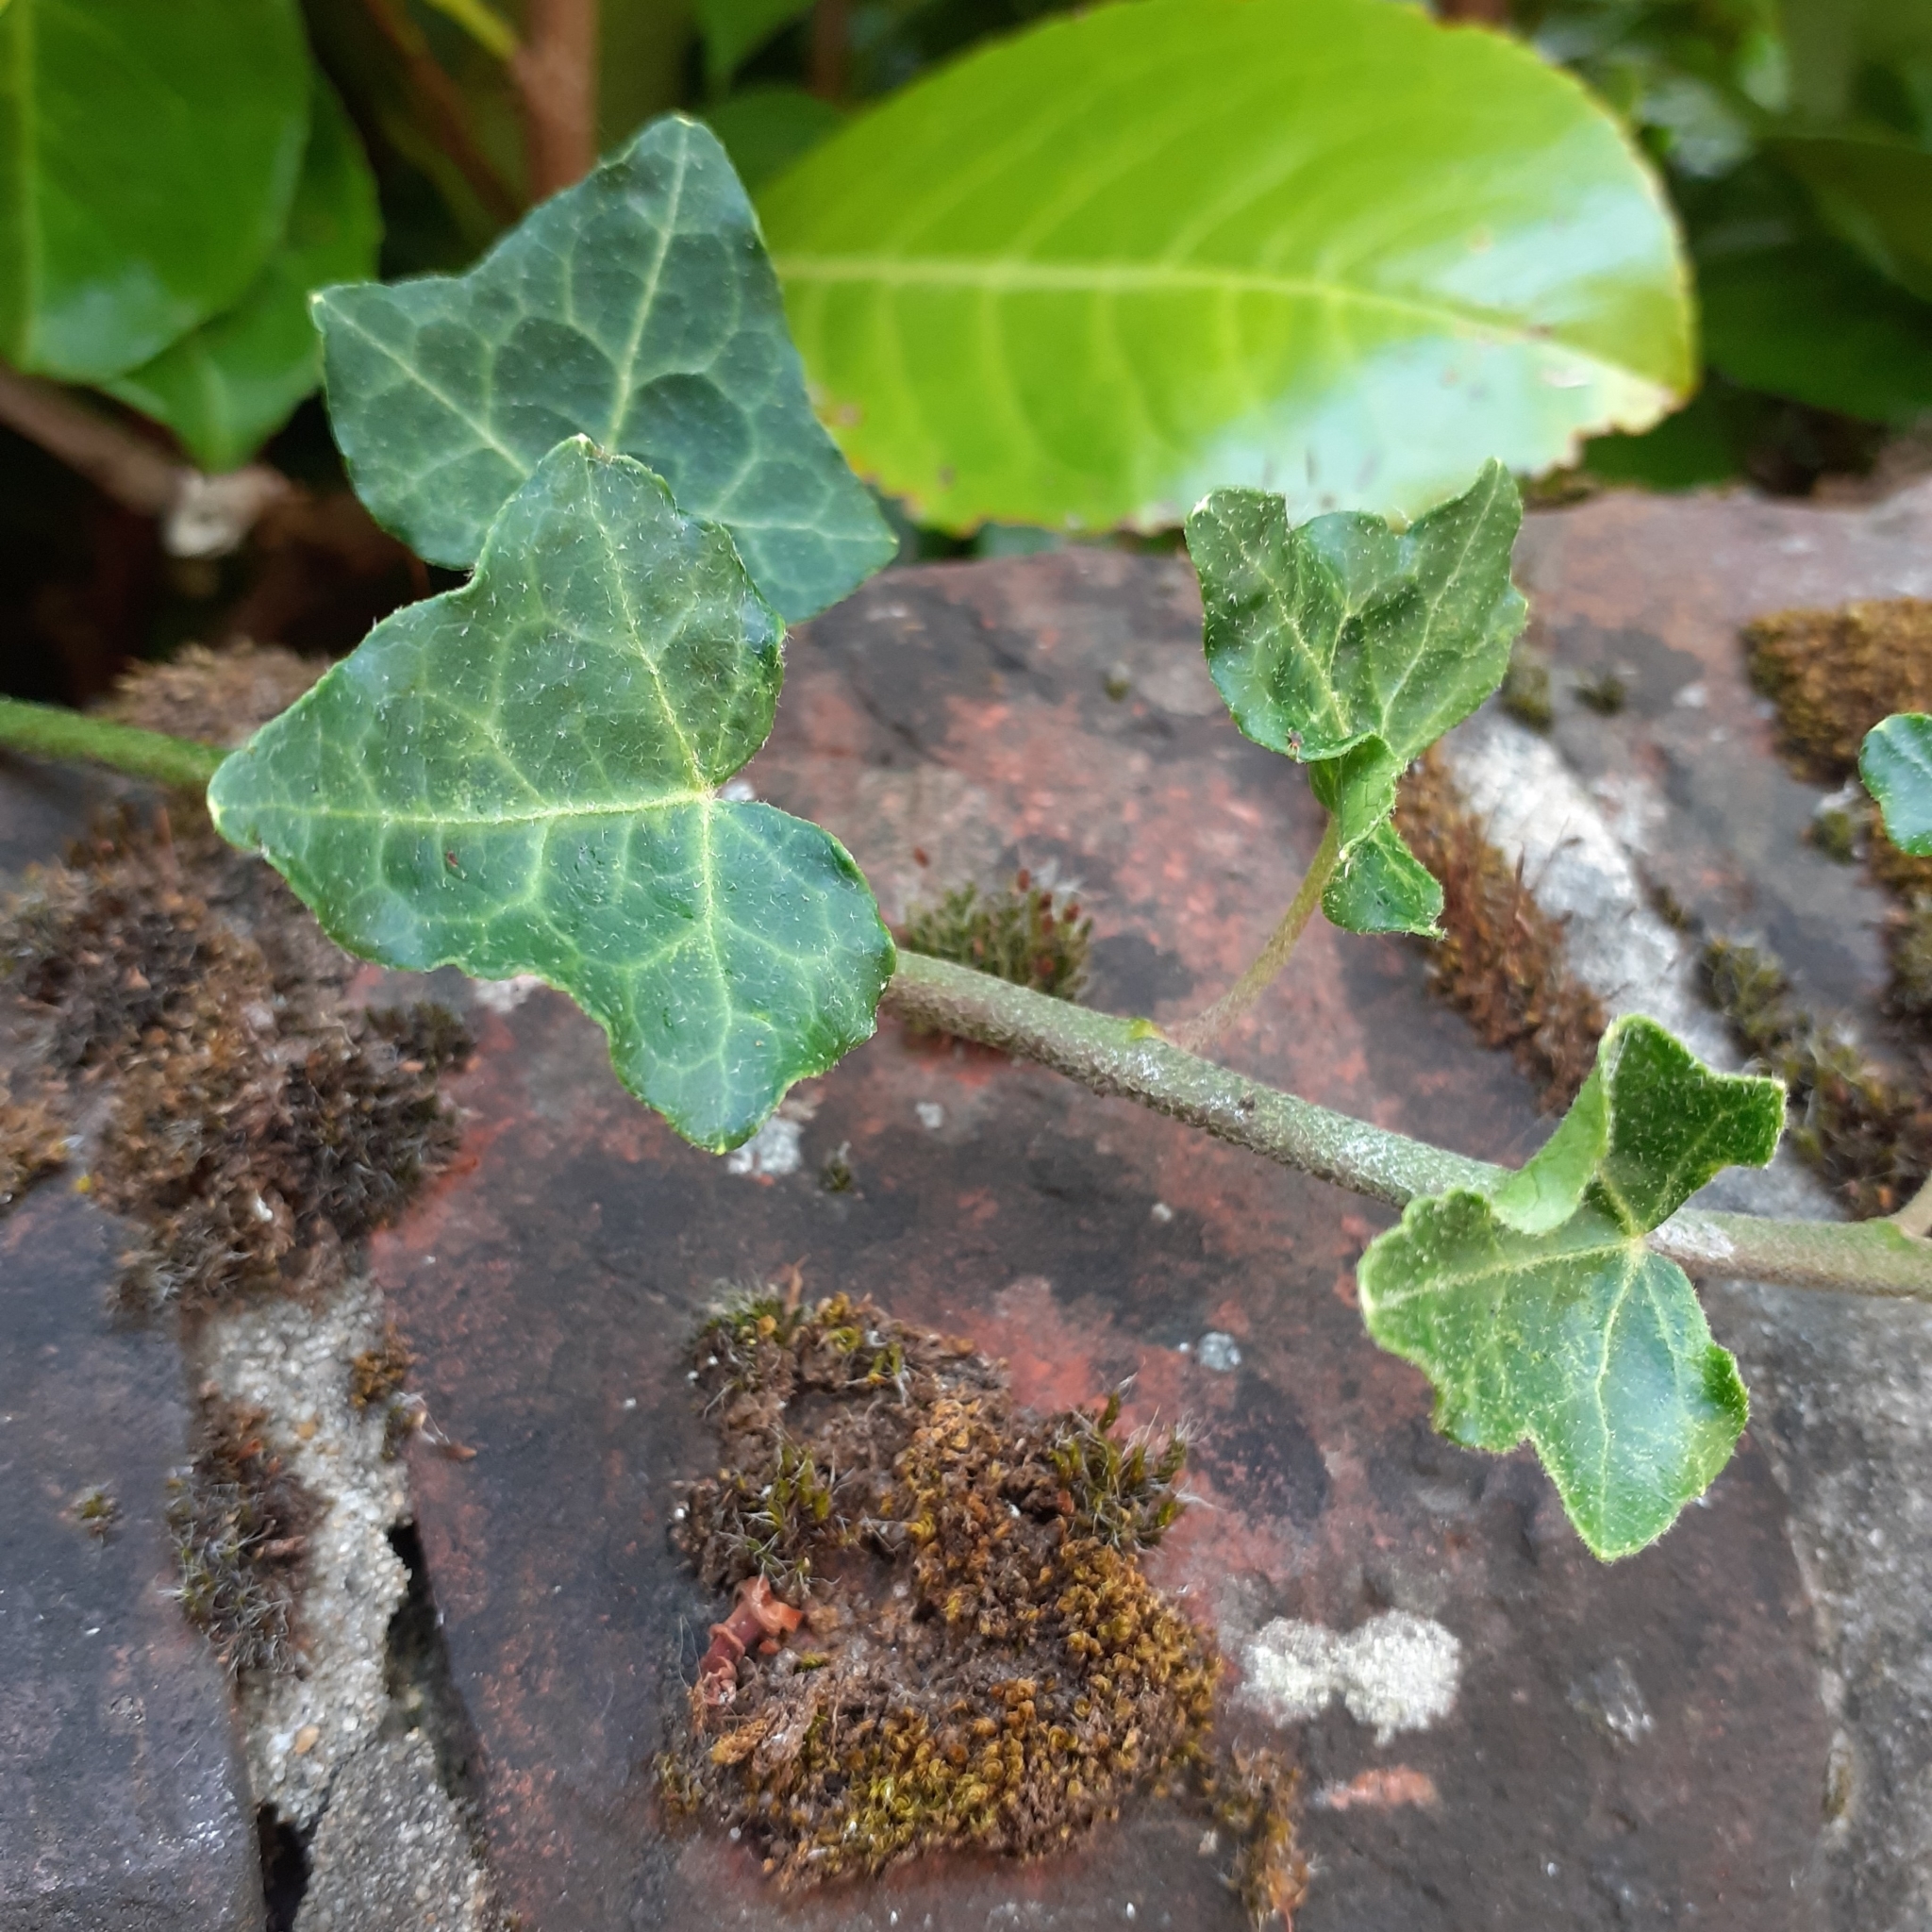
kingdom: Plantae
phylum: Tracheophyta
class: Magnoliopsida
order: Apiales
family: Araliaceae
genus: Hedera
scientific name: Hedera helix
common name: Ivy
